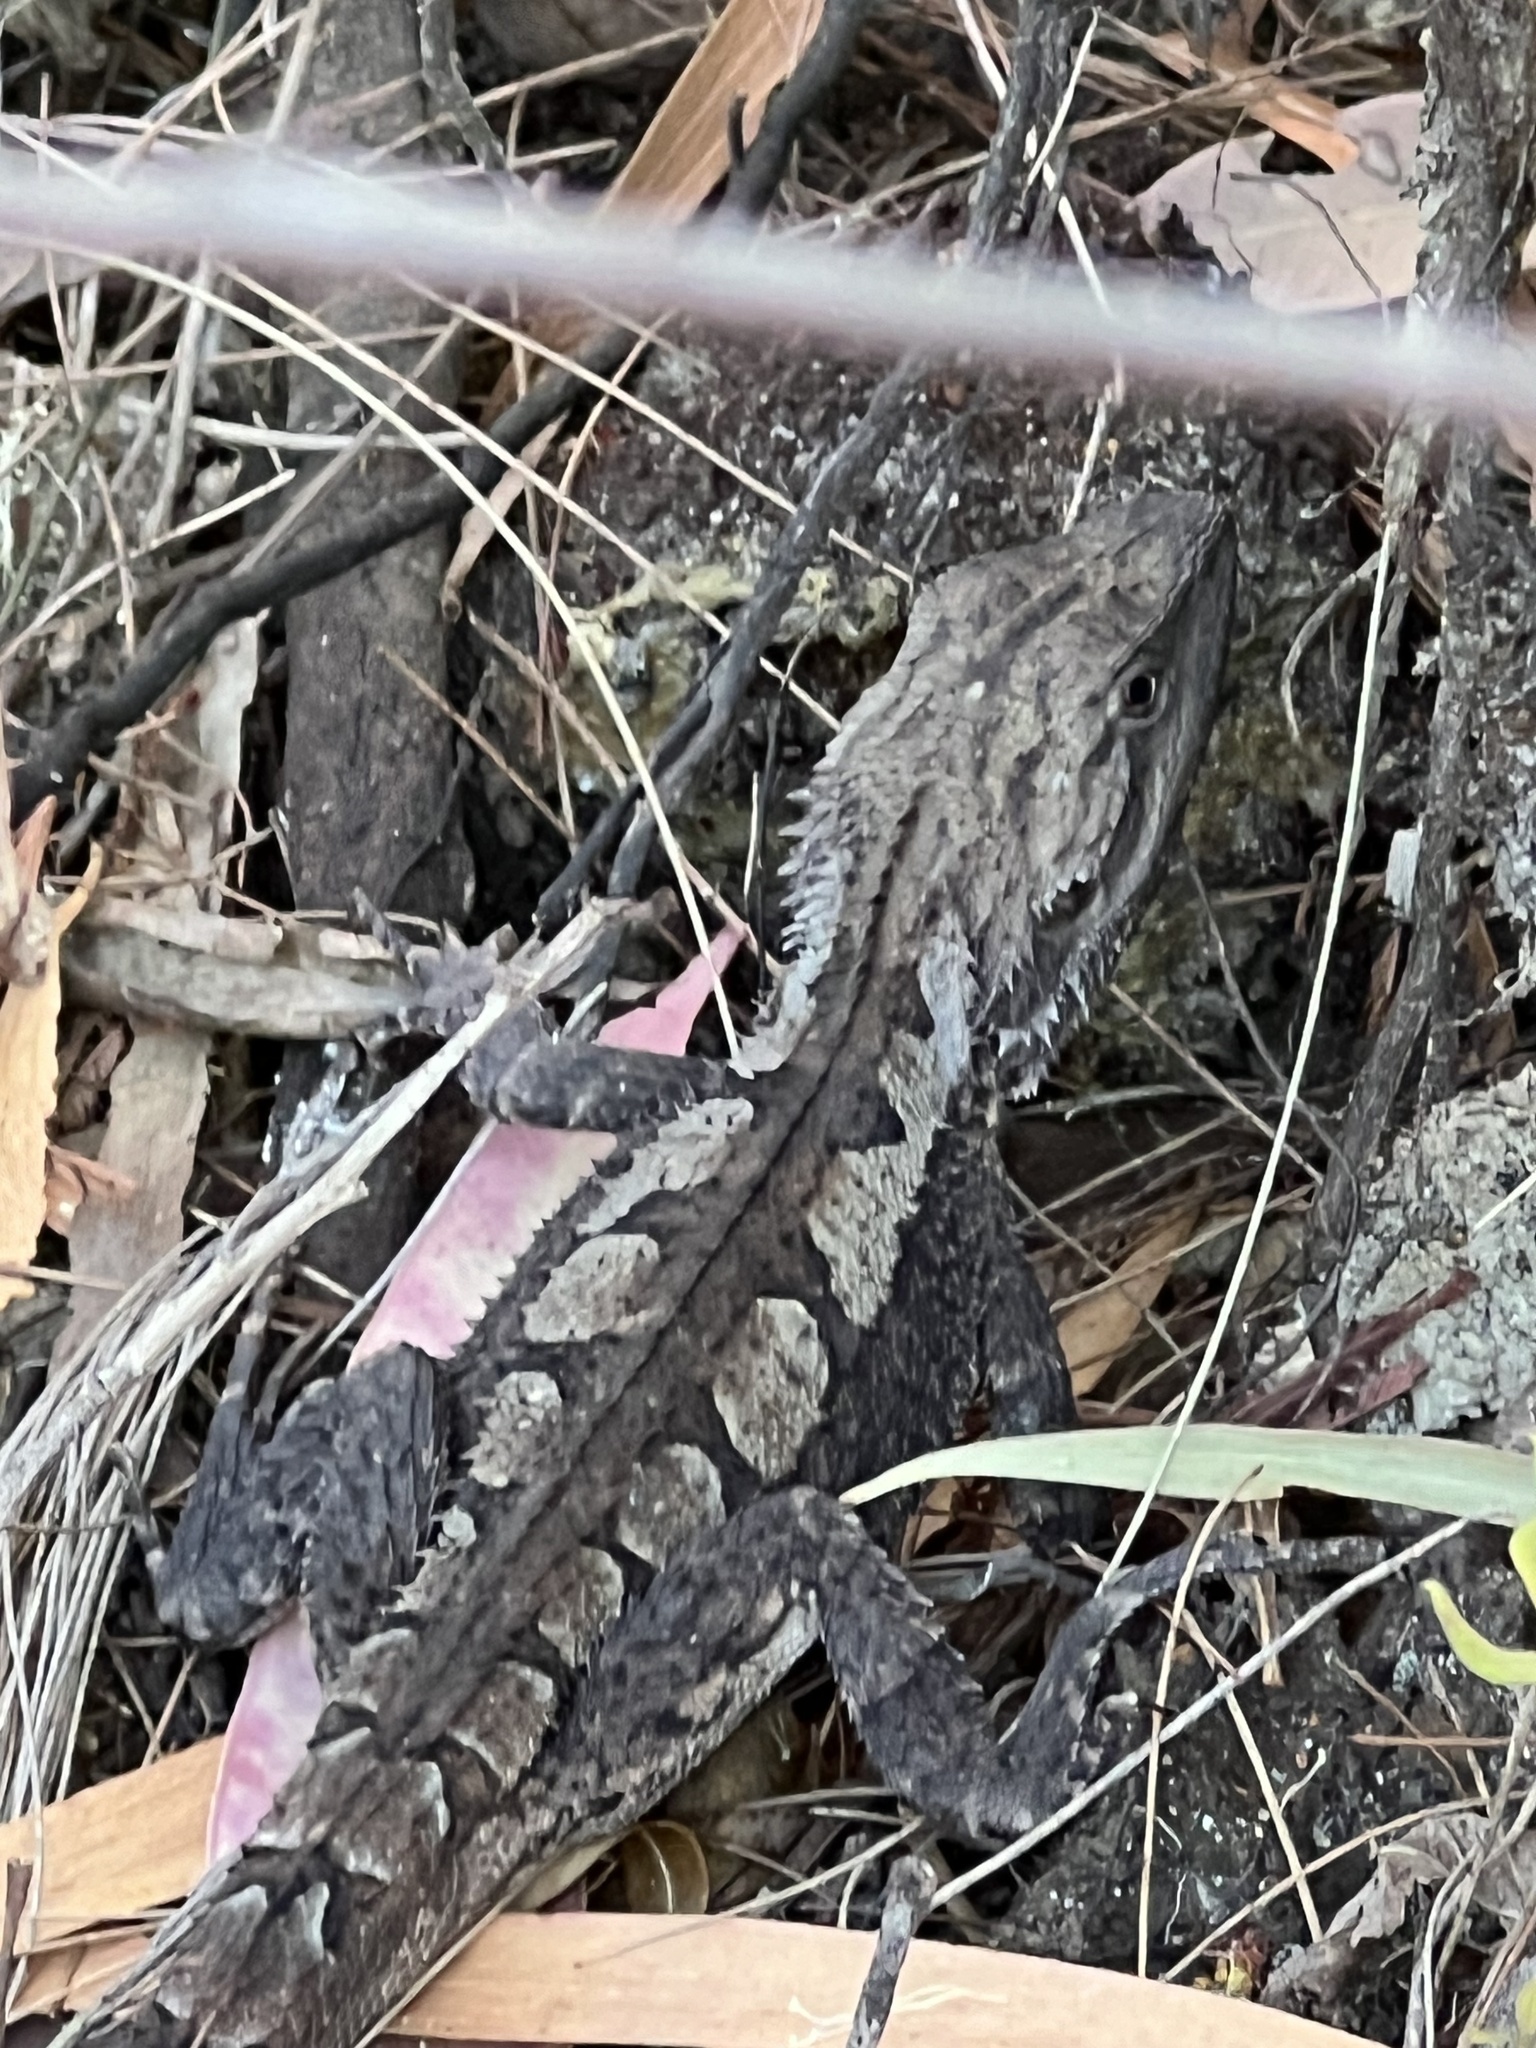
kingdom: Animalia
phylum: Chordata
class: Squamata
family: Agamidae
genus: Amphibolurus
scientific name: Amphibolurus muricatus
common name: Jacky lizard
